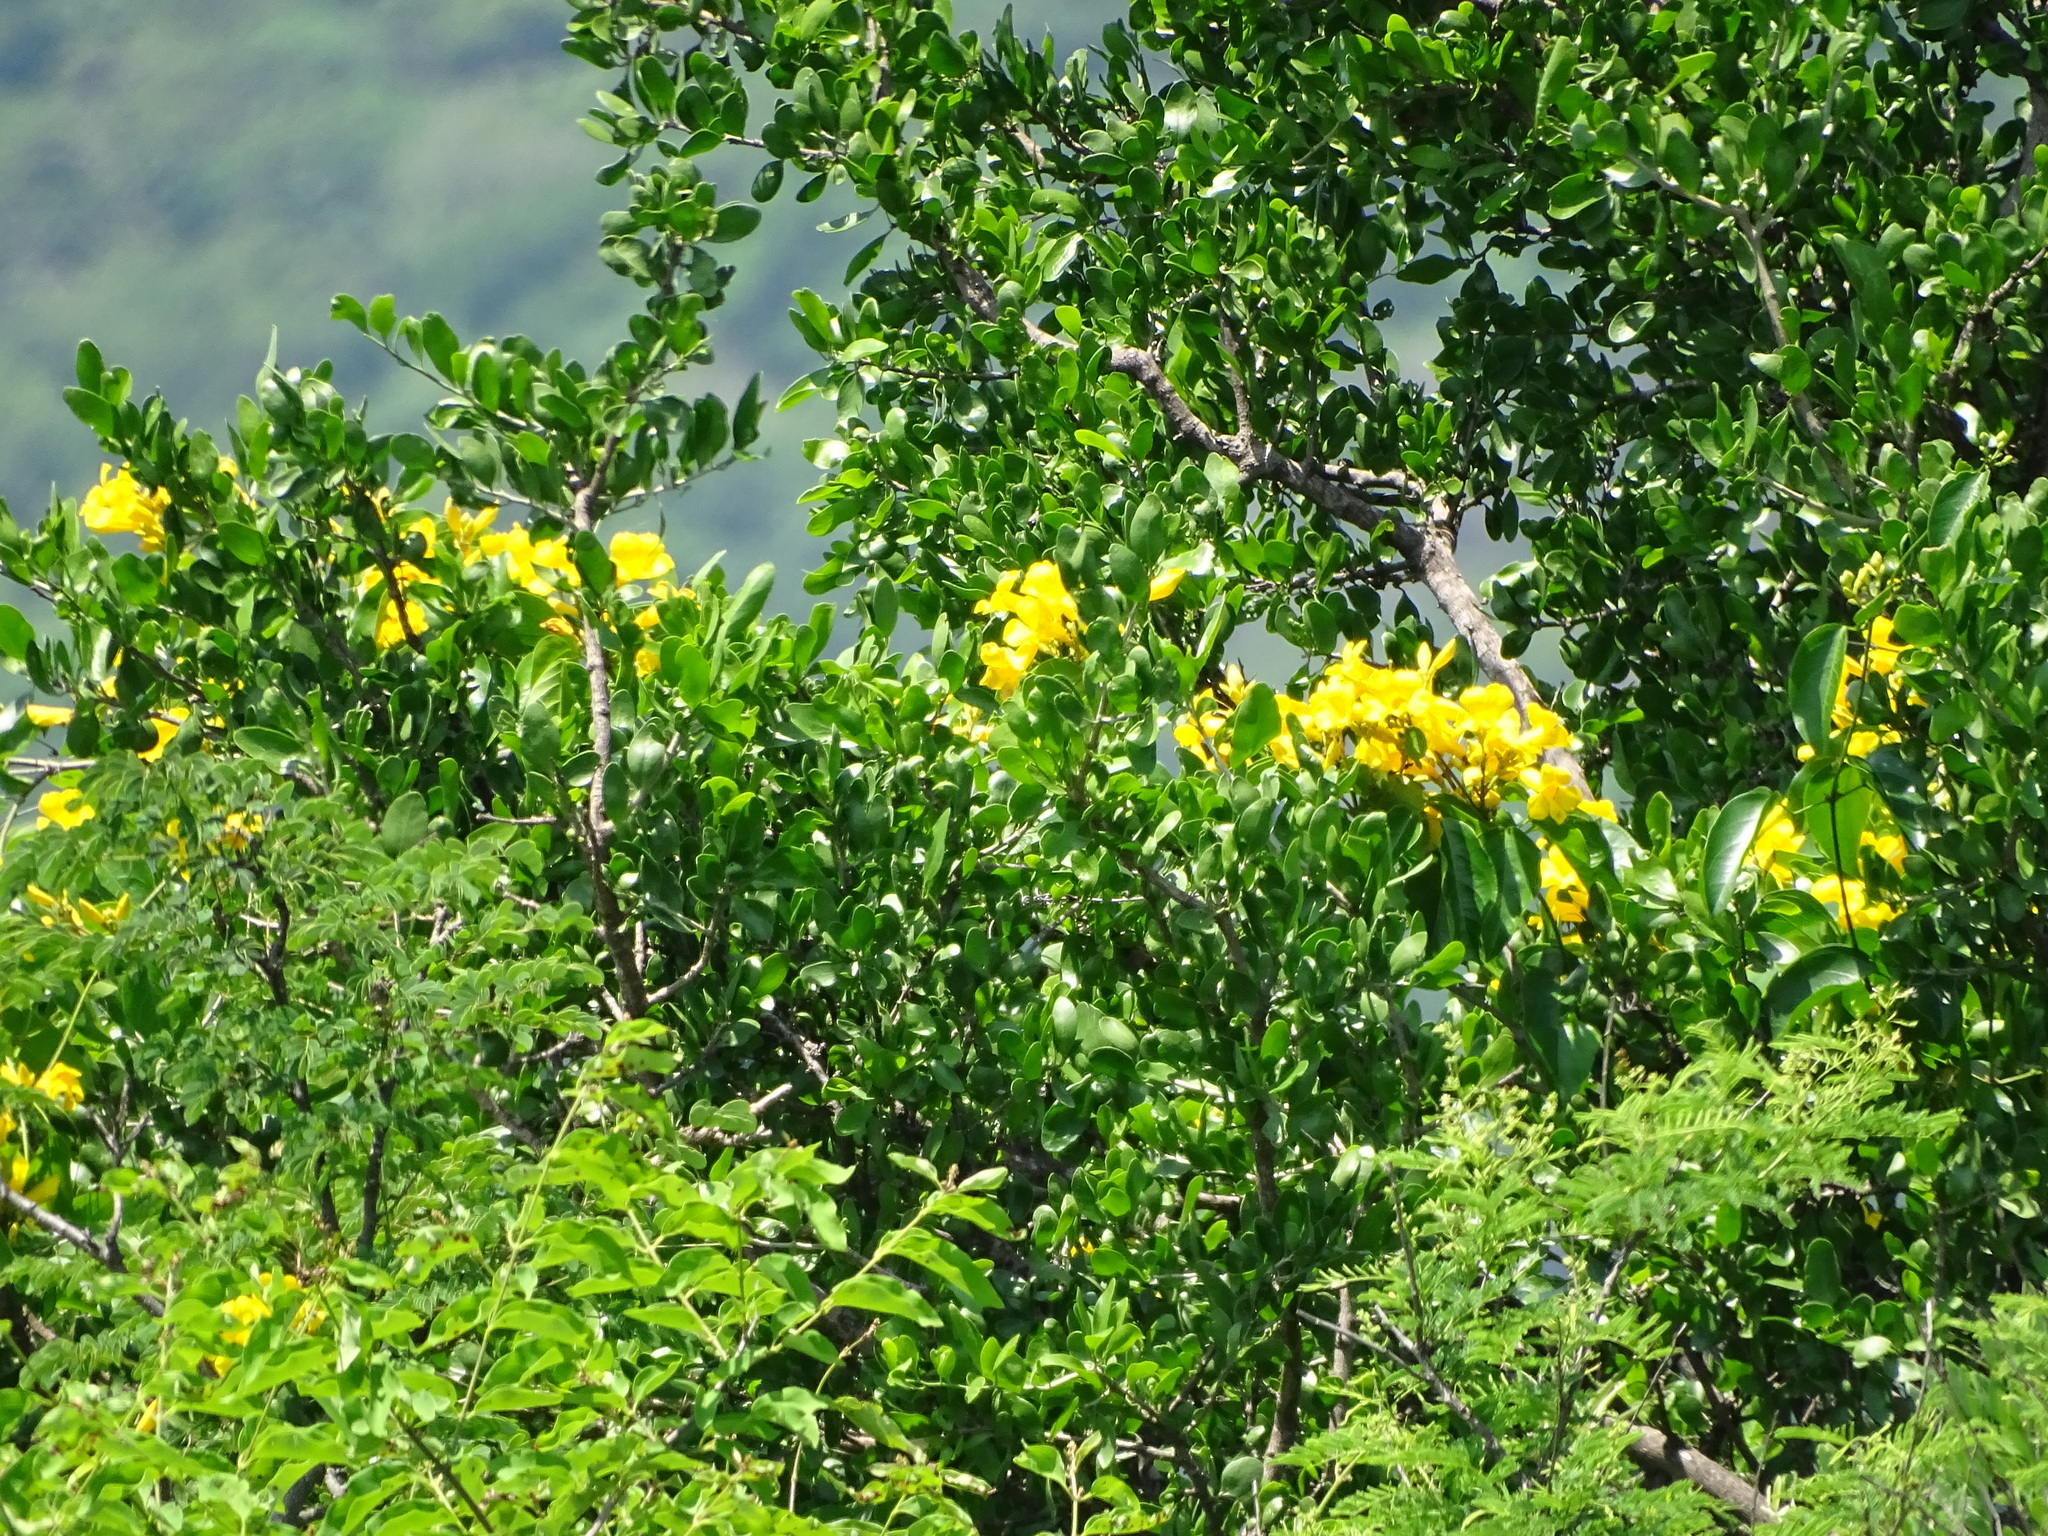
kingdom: Plantae
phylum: Tracheophyta
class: Magnoliopsida
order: Lamiales
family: Bignoniaceae
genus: Adenocalymma
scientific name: Adenocalymma inundatum
